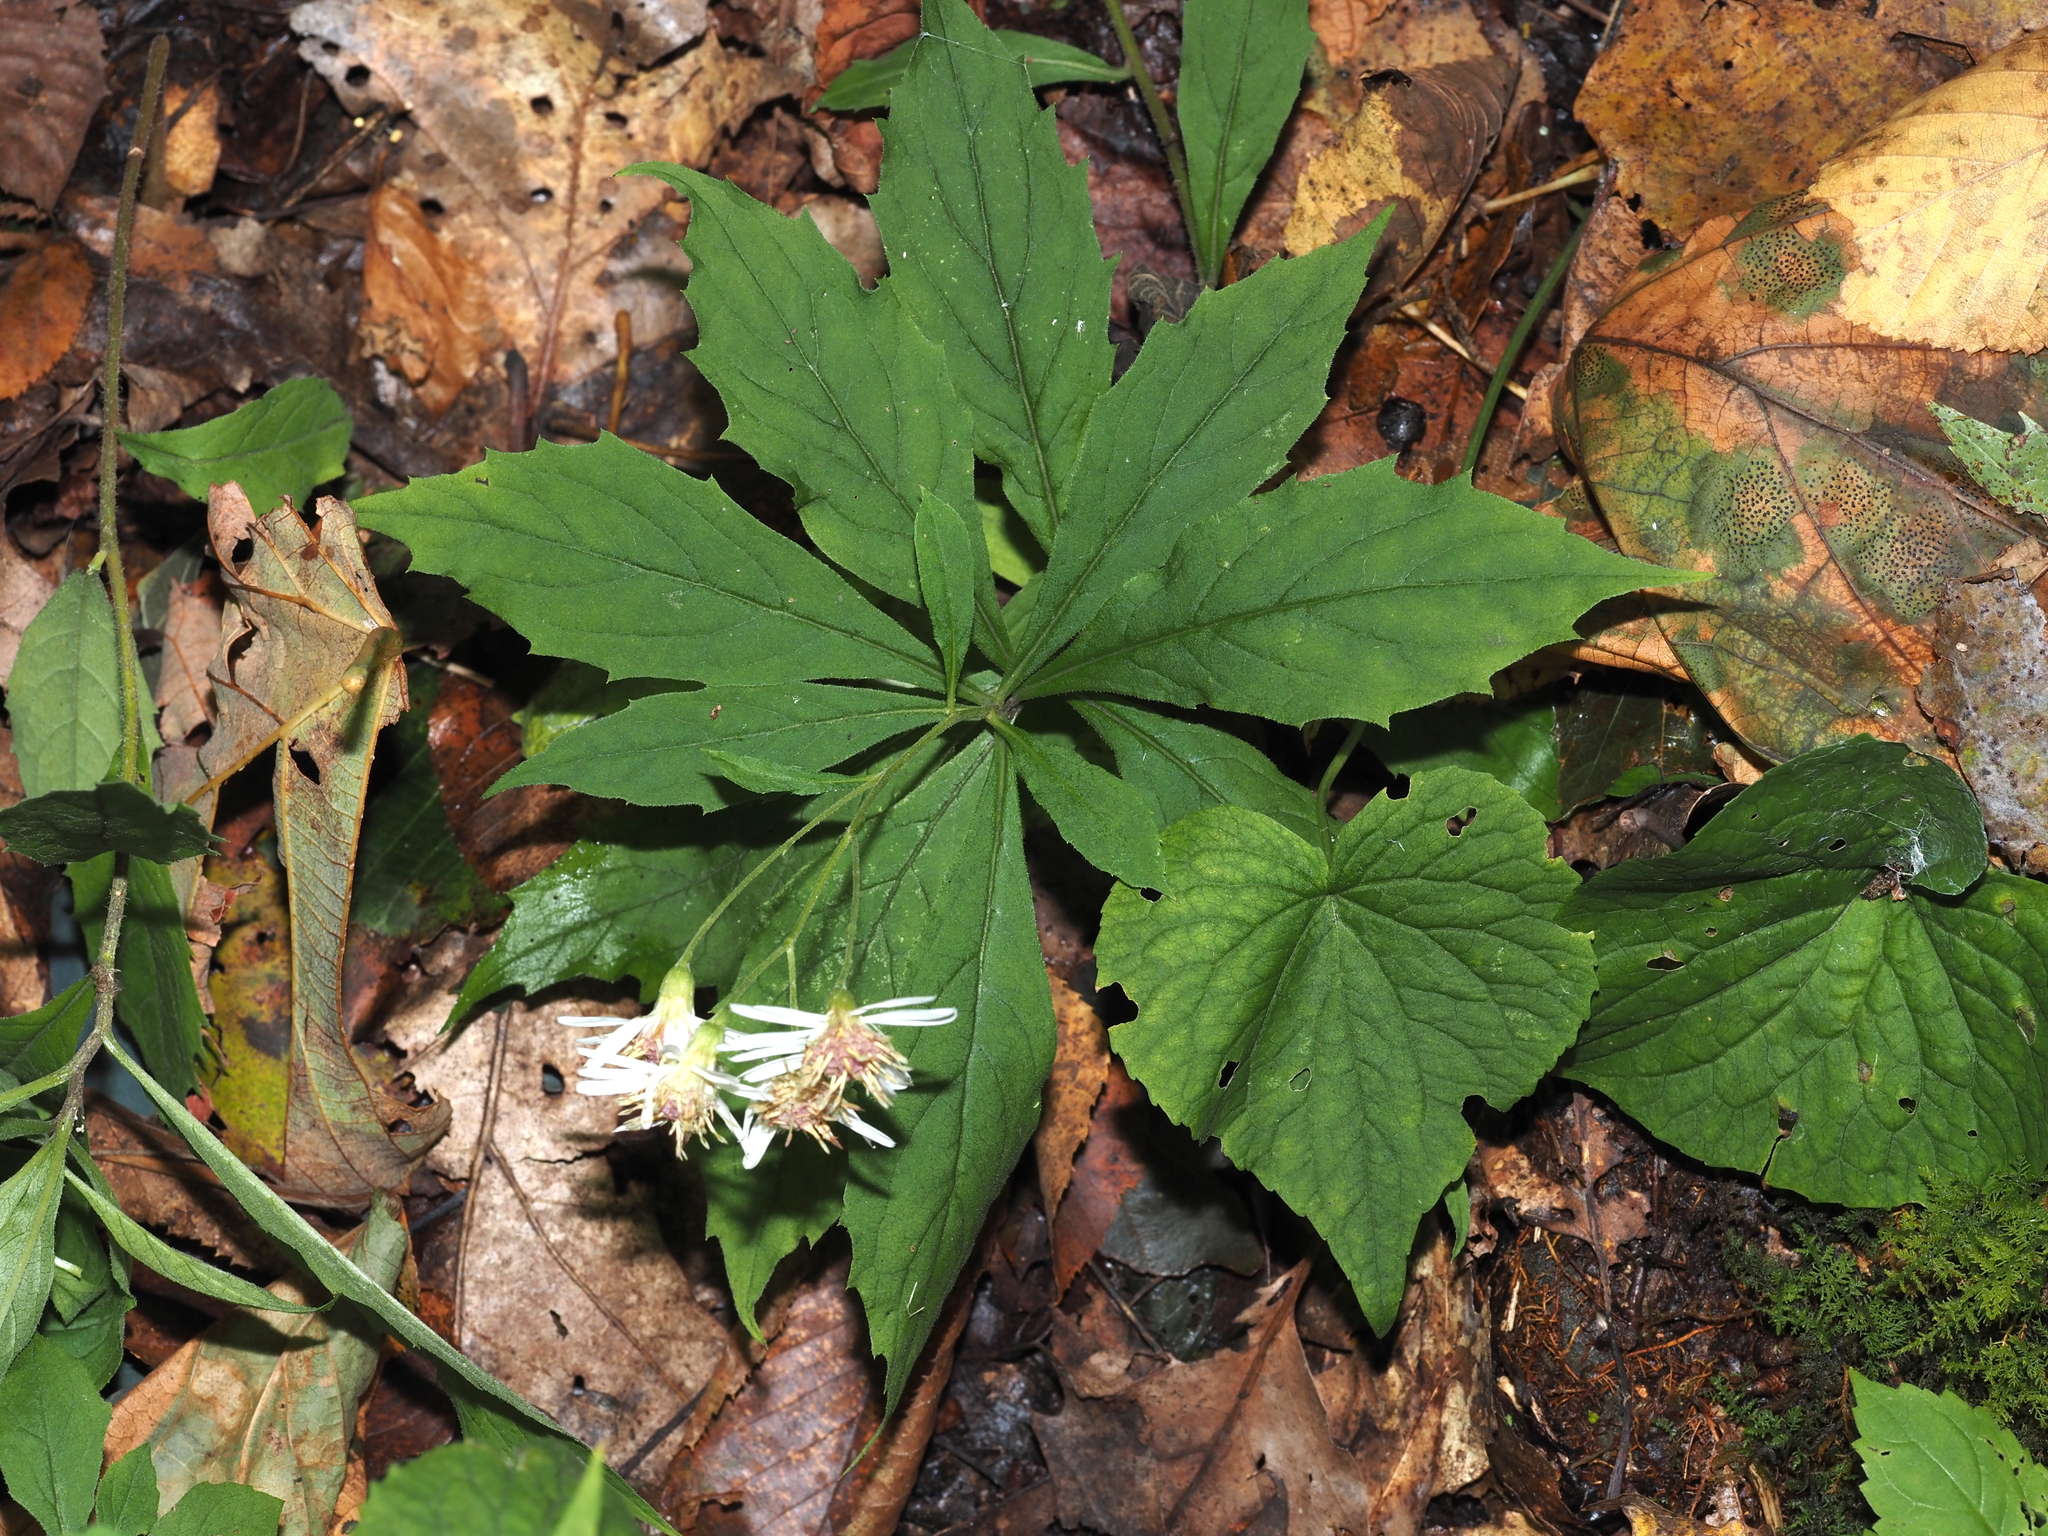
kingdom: Plantae
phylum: Tracheophyta
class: Magnoliopsida
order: Asterales
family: Asteraceae
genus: Oclemena
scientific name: Oclemena acuminata
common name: Mountain aster
